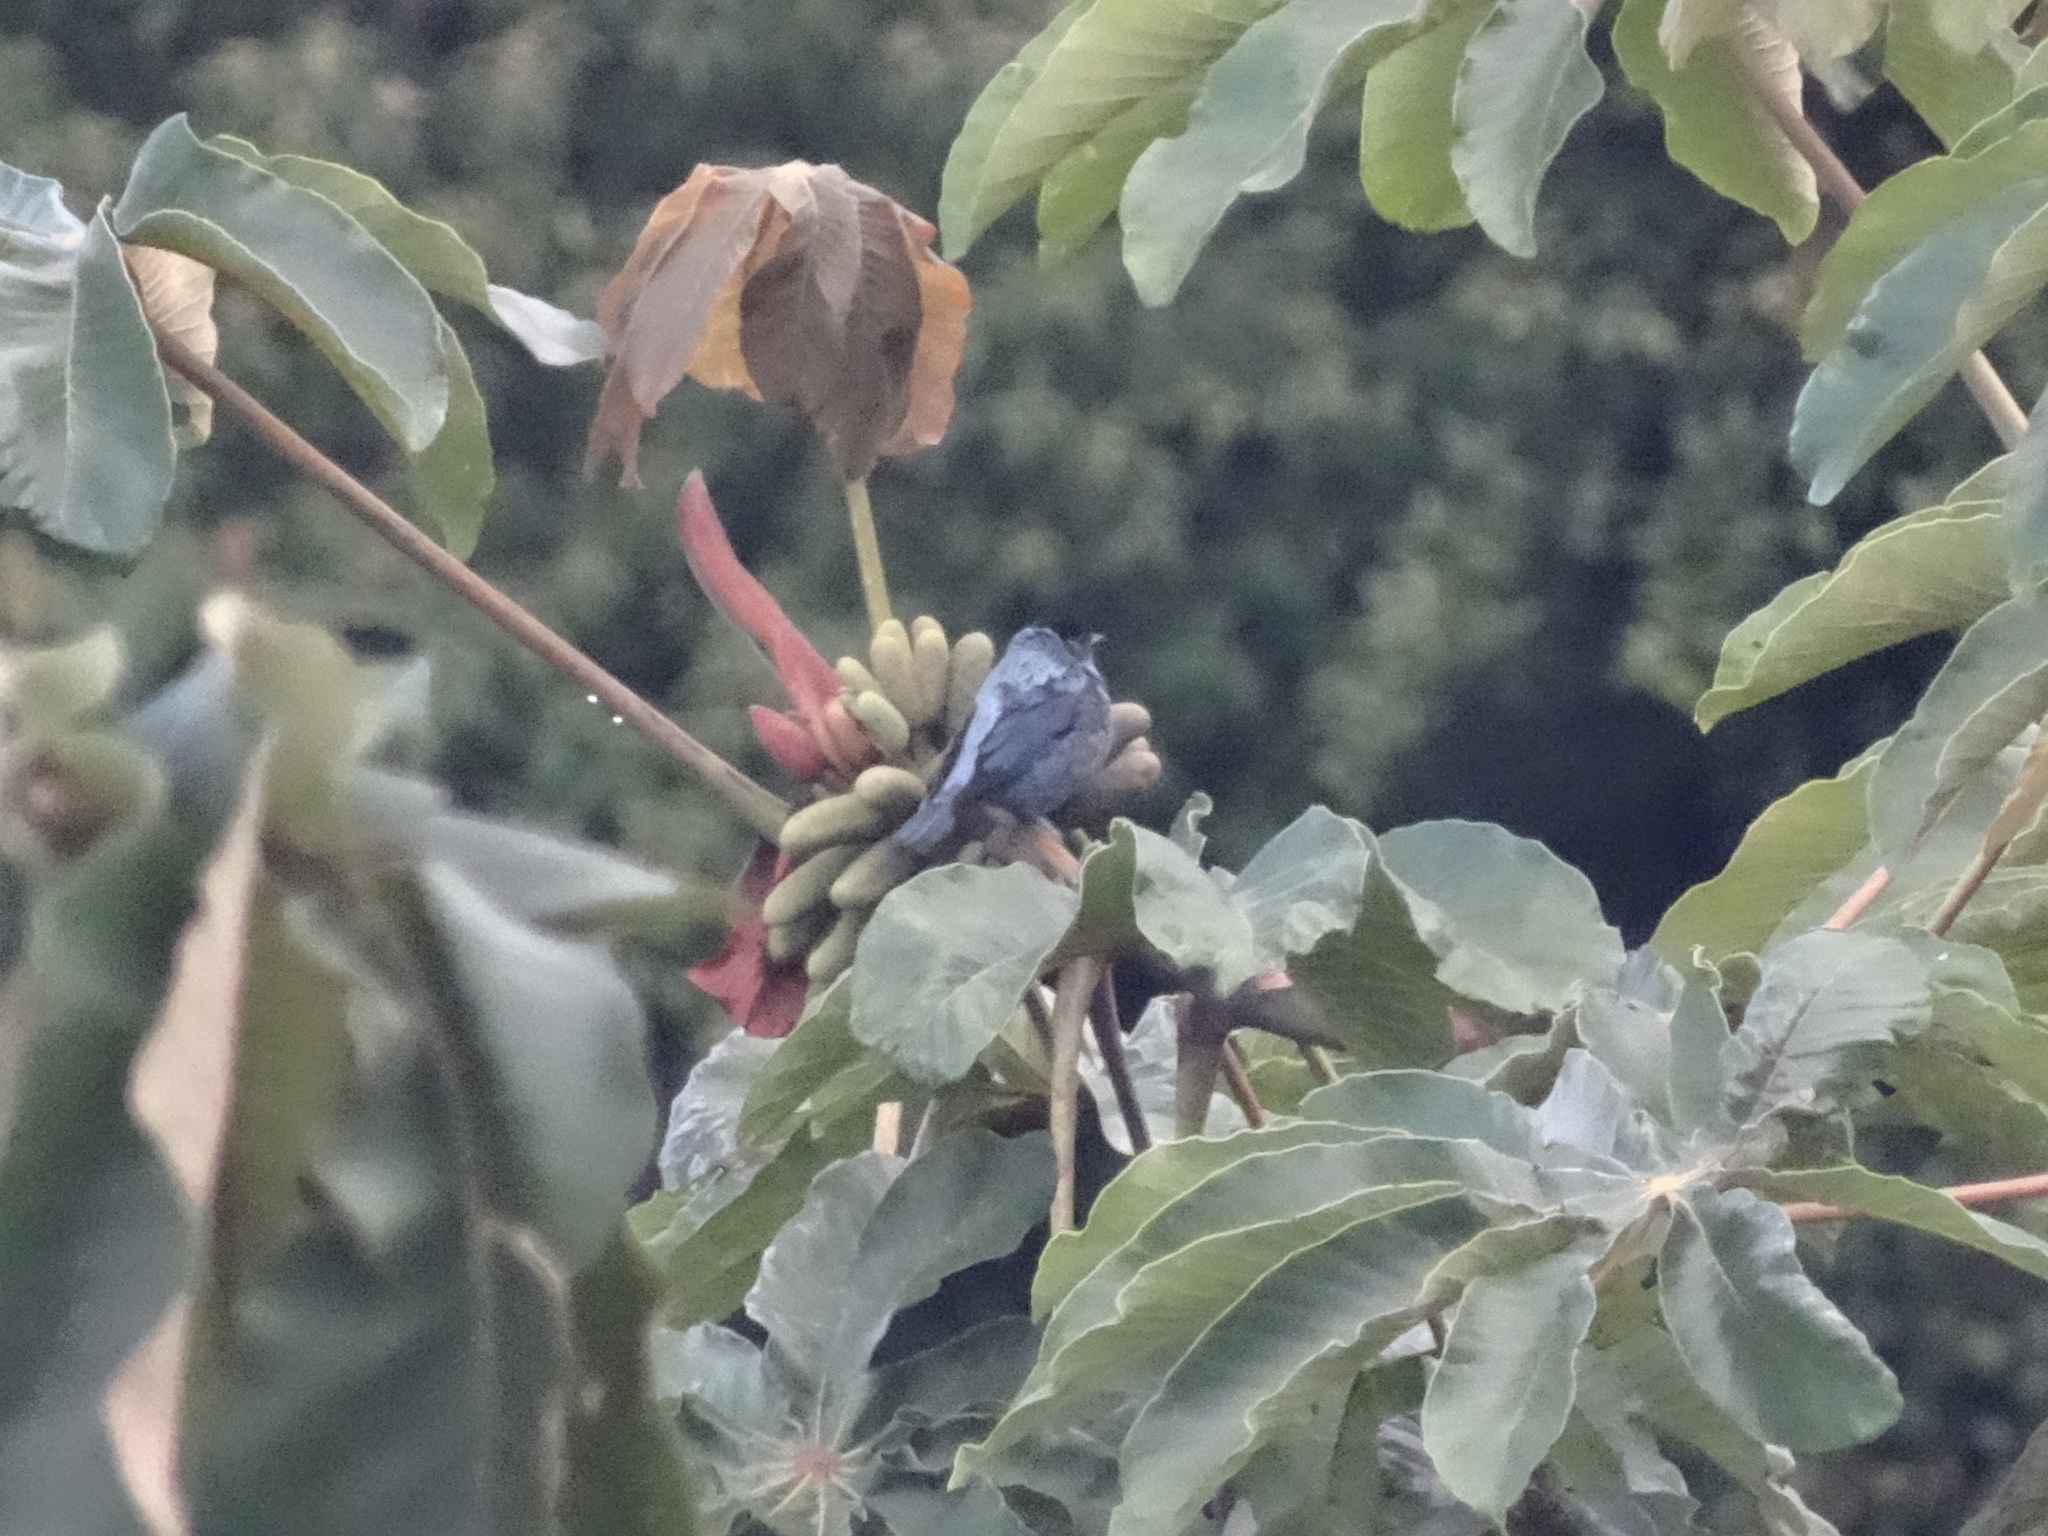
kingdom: Animalia
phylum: Chordata
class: Aves
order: Passeriformes
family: Thraupidae
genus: Stilpnia
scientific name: Stilpnia heinei
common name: Black-capped tanager
